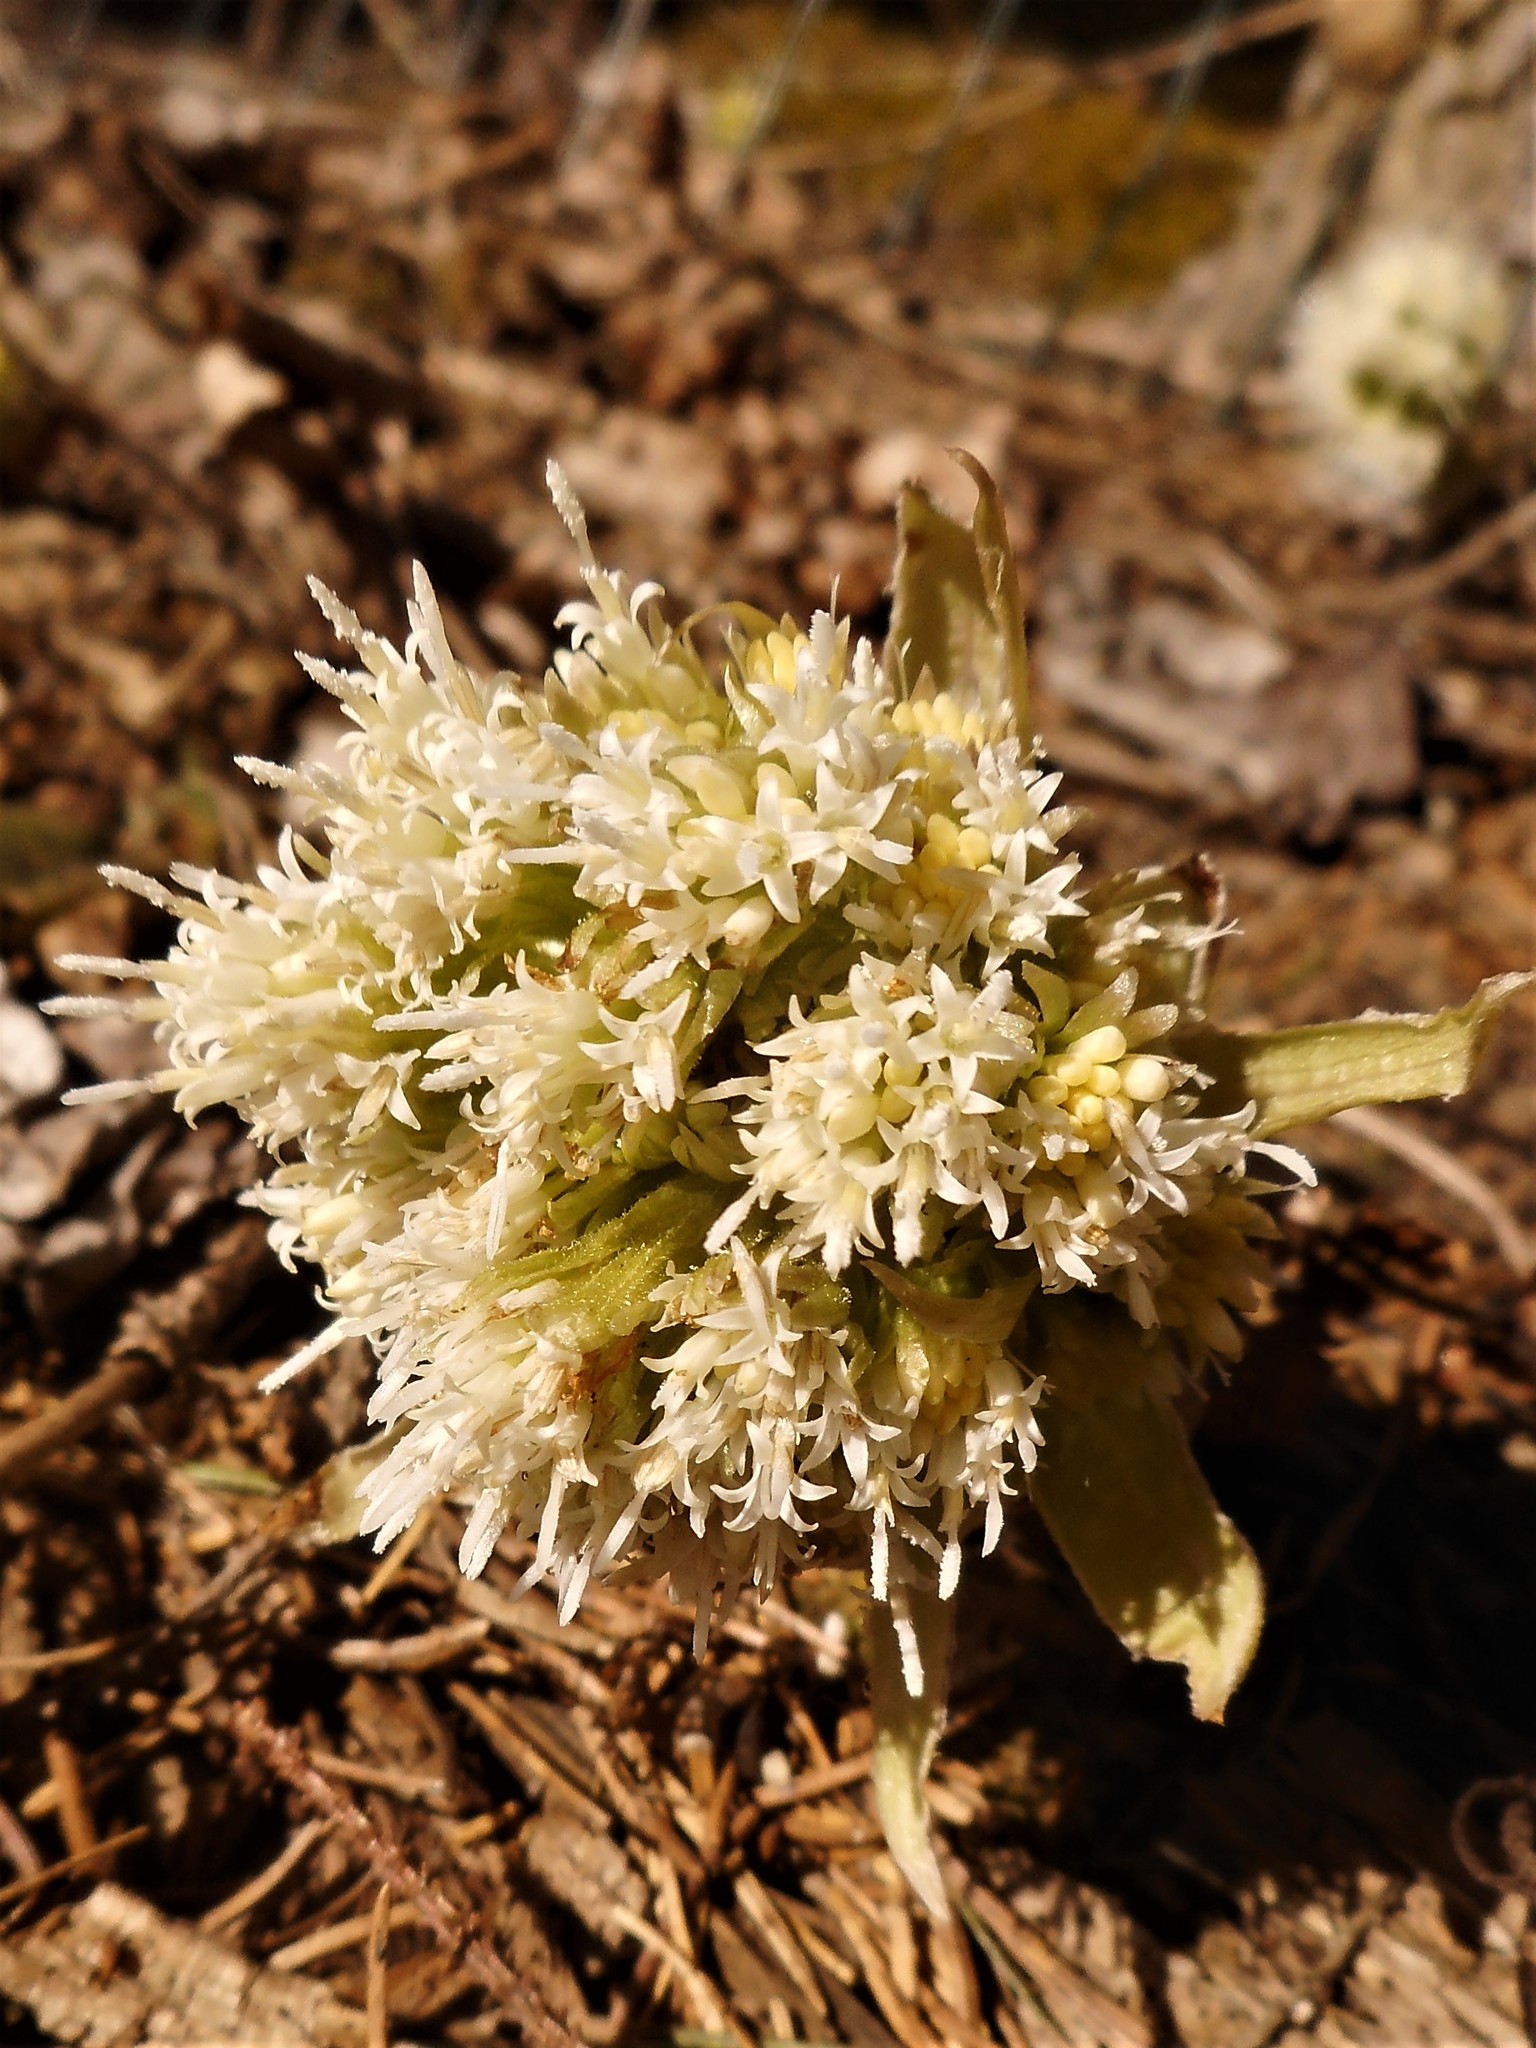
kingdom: Plantae
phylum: Tracheophyta
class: Magnoliopsida
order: Asterales
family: Asteraceae
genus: Petasites
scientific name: Petasites albus
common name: White butterbur
